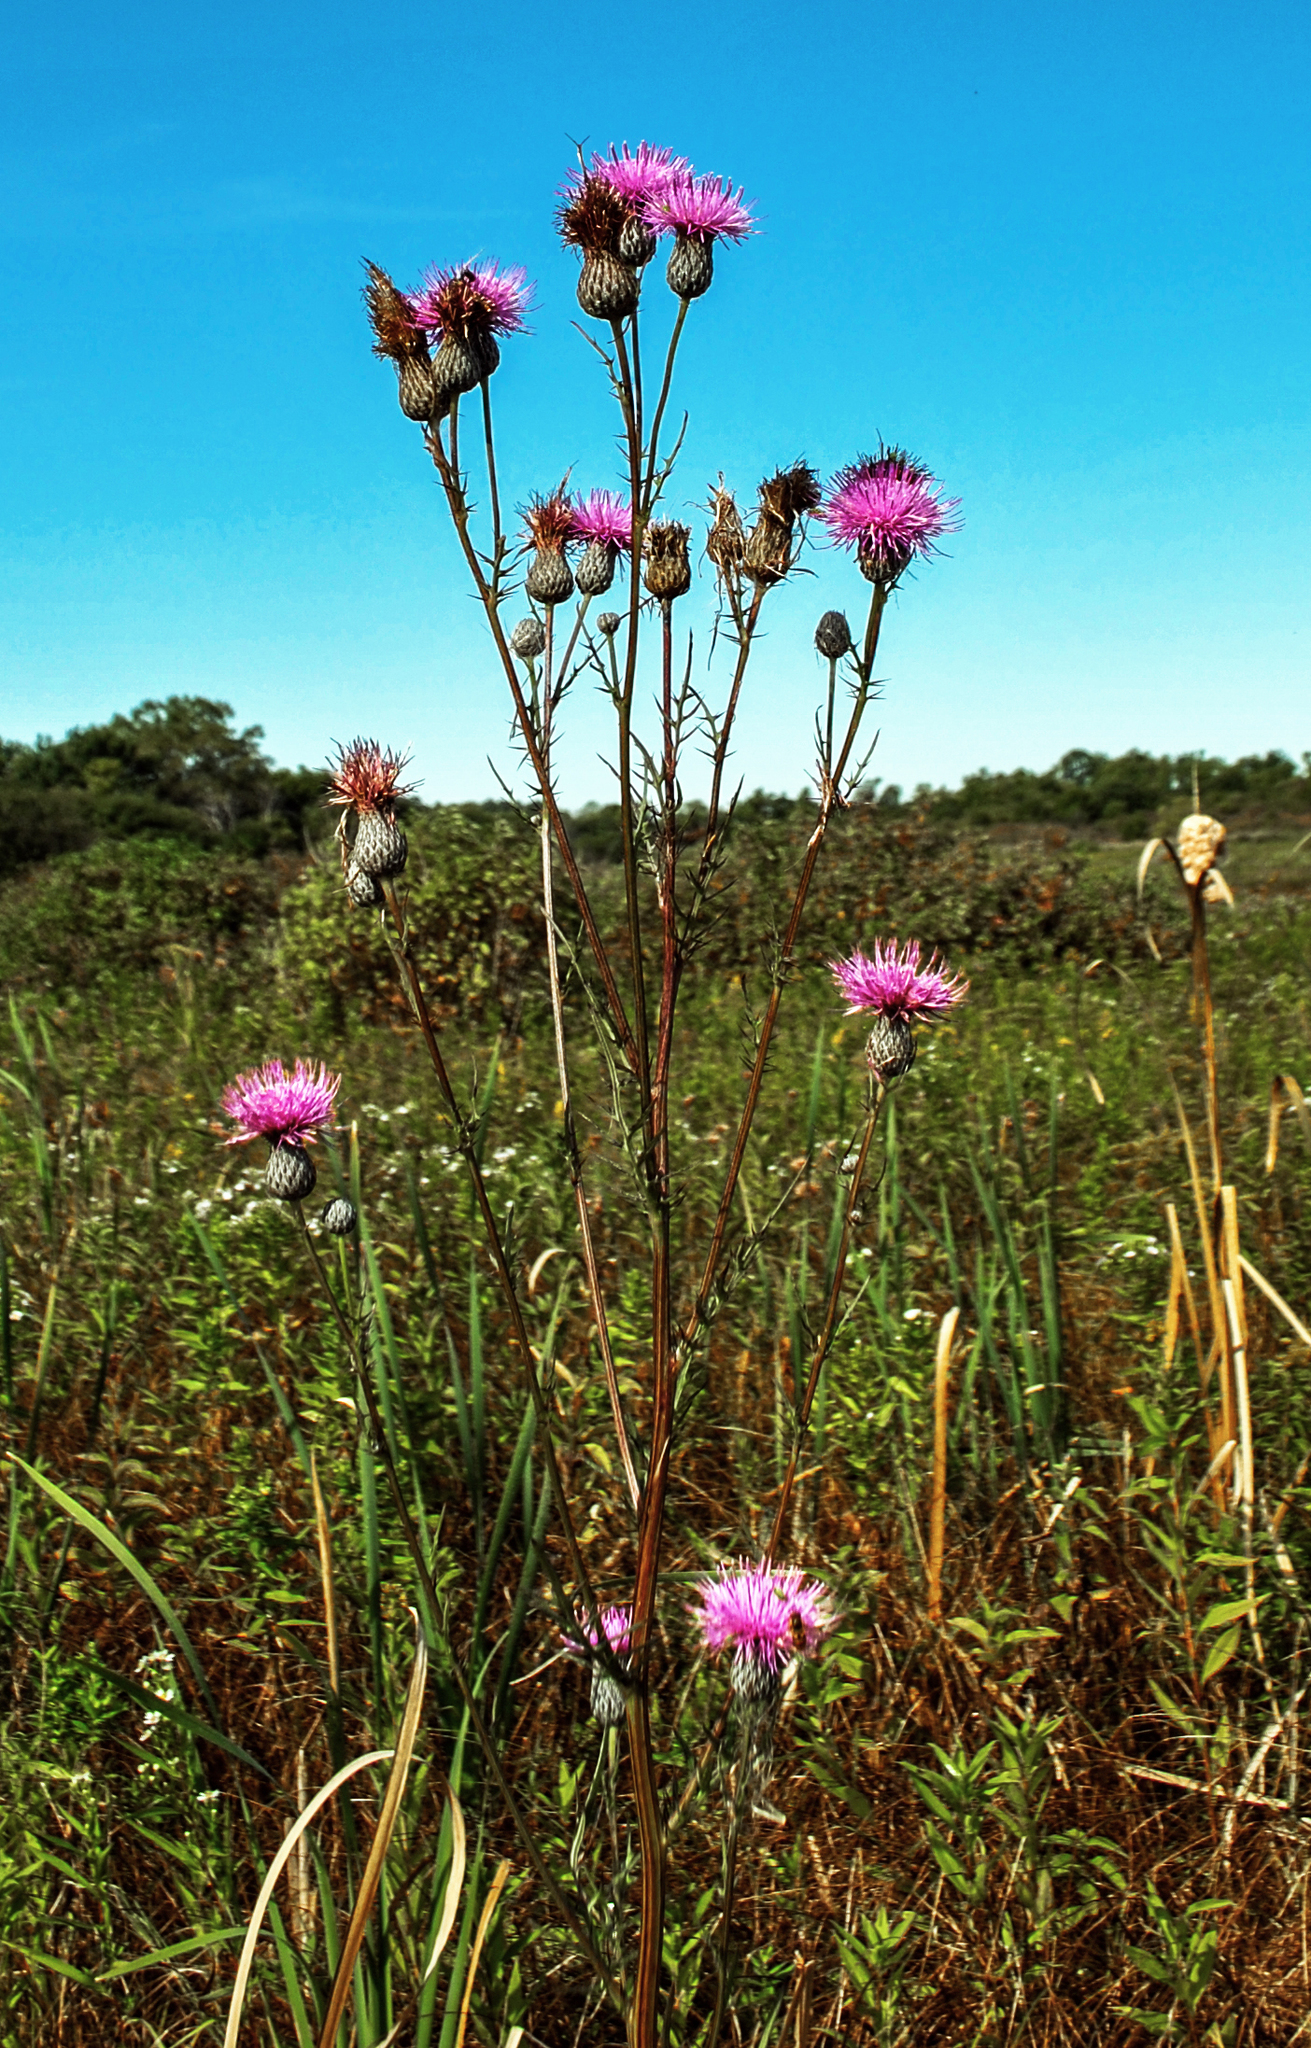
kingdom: Plantae
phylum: Tracheophyta
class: Magnoliopsida
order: Asterales
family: Asteraceae
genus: Cirsium
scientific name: Cirsium muticum
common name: Dunce-nettle
